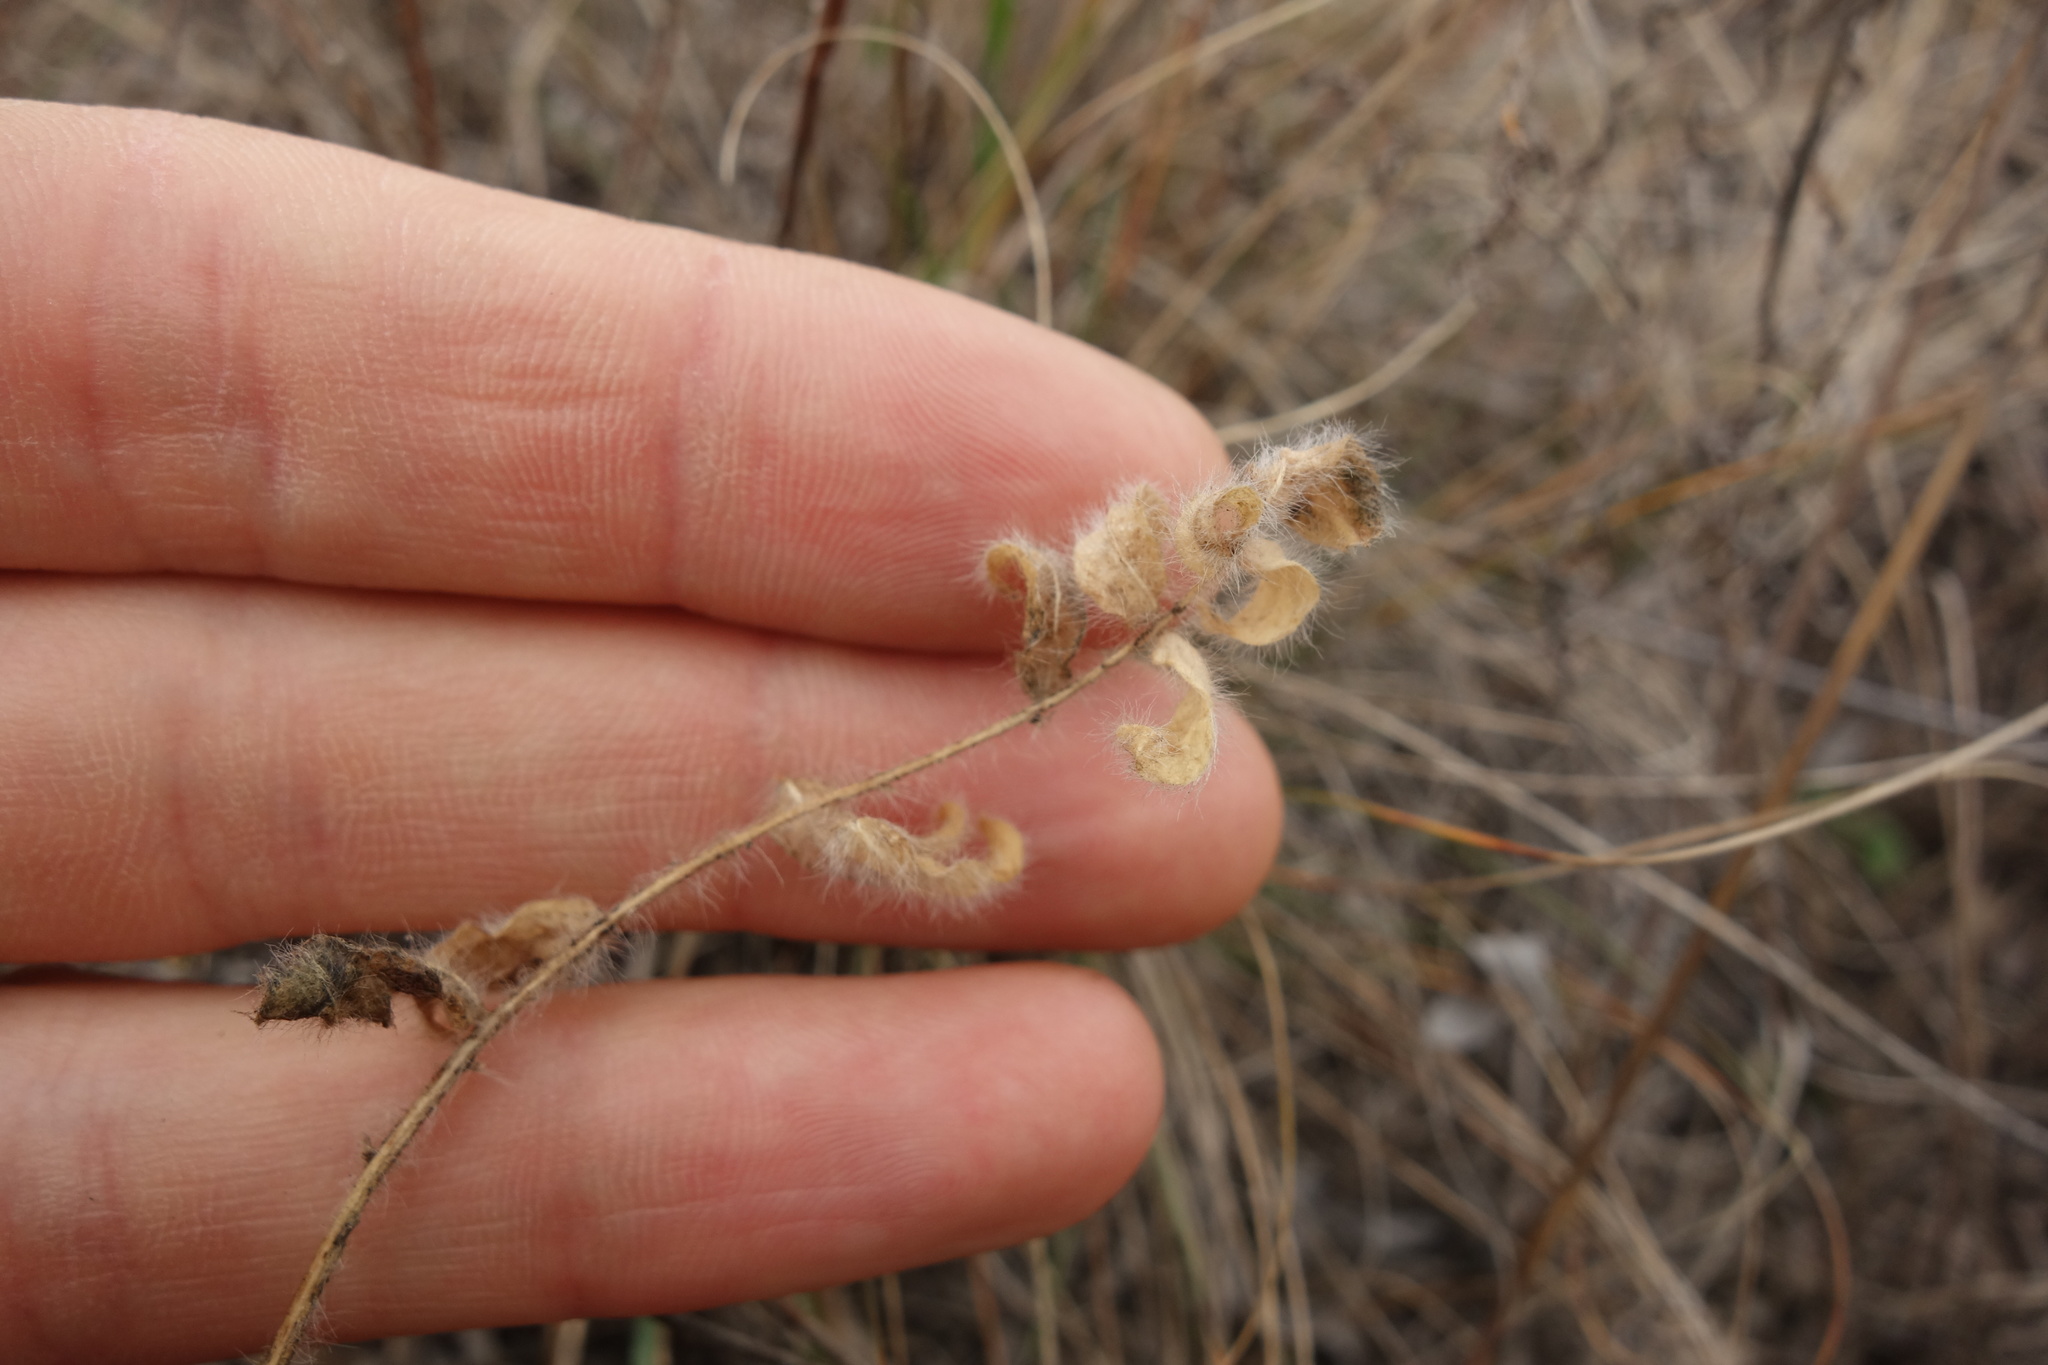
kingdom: Plantae
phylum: Tracheophyta
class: Magnoliopsida
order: Fabales
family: Fabaceae
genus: Astragalus
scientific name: Astragalus dasyanthus
